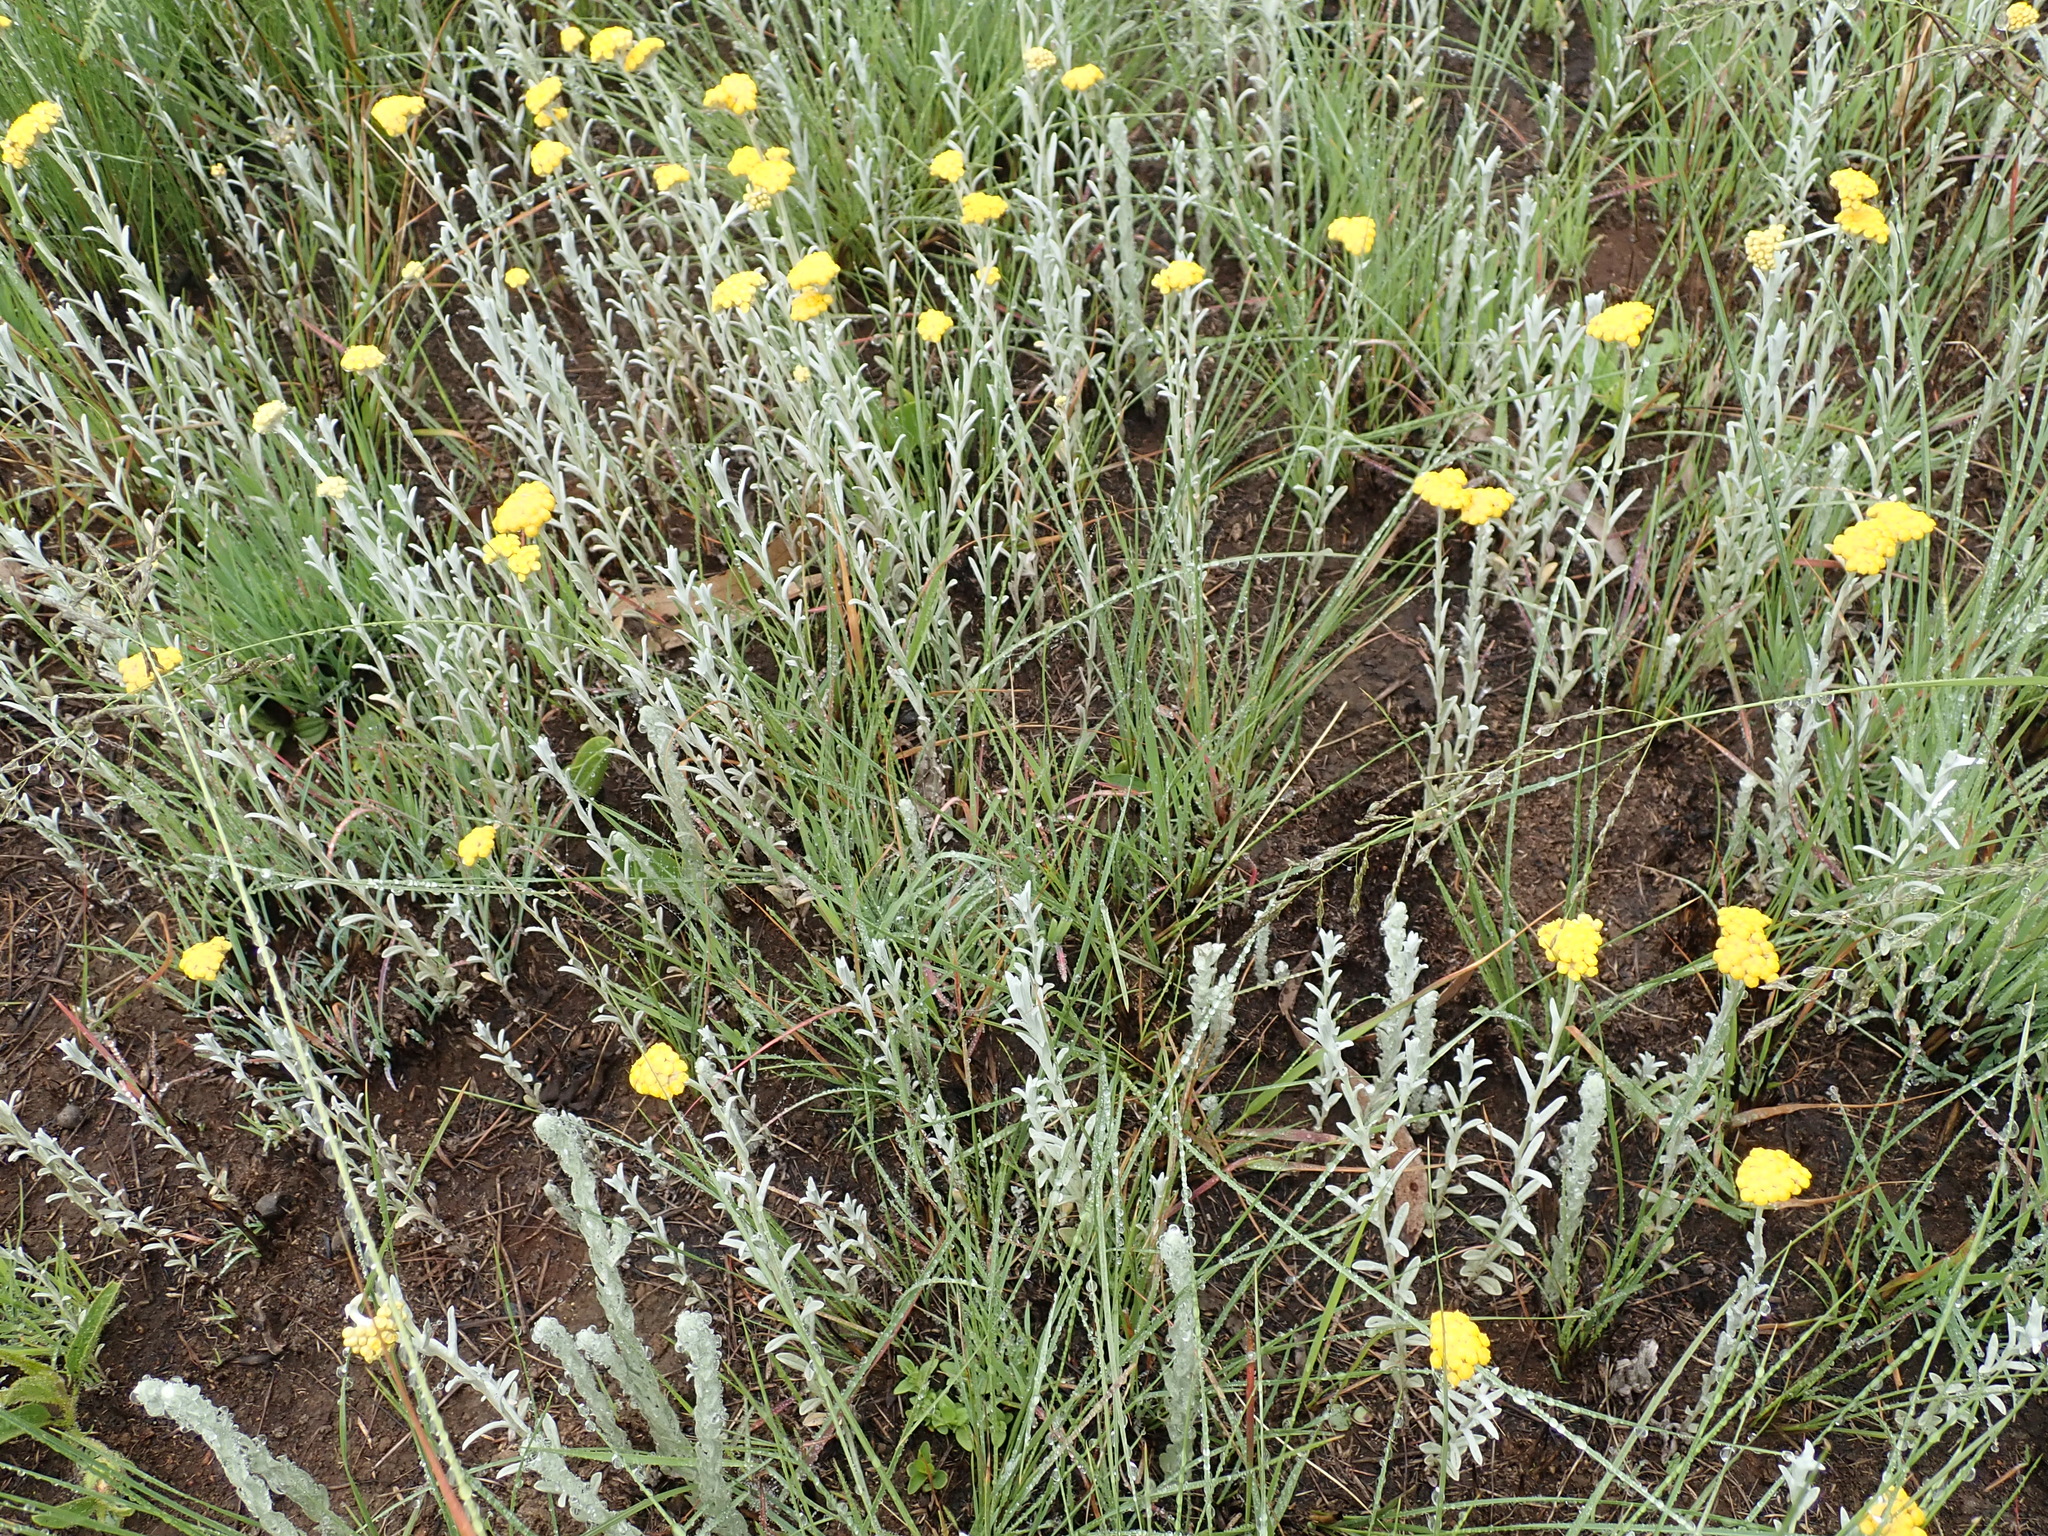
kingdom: Plantae
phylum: Tracheophyta
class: Magnoliopsida
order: Asterales
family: Asteraceae
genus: Helichrysum
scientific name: Helichrysum aureonitens
